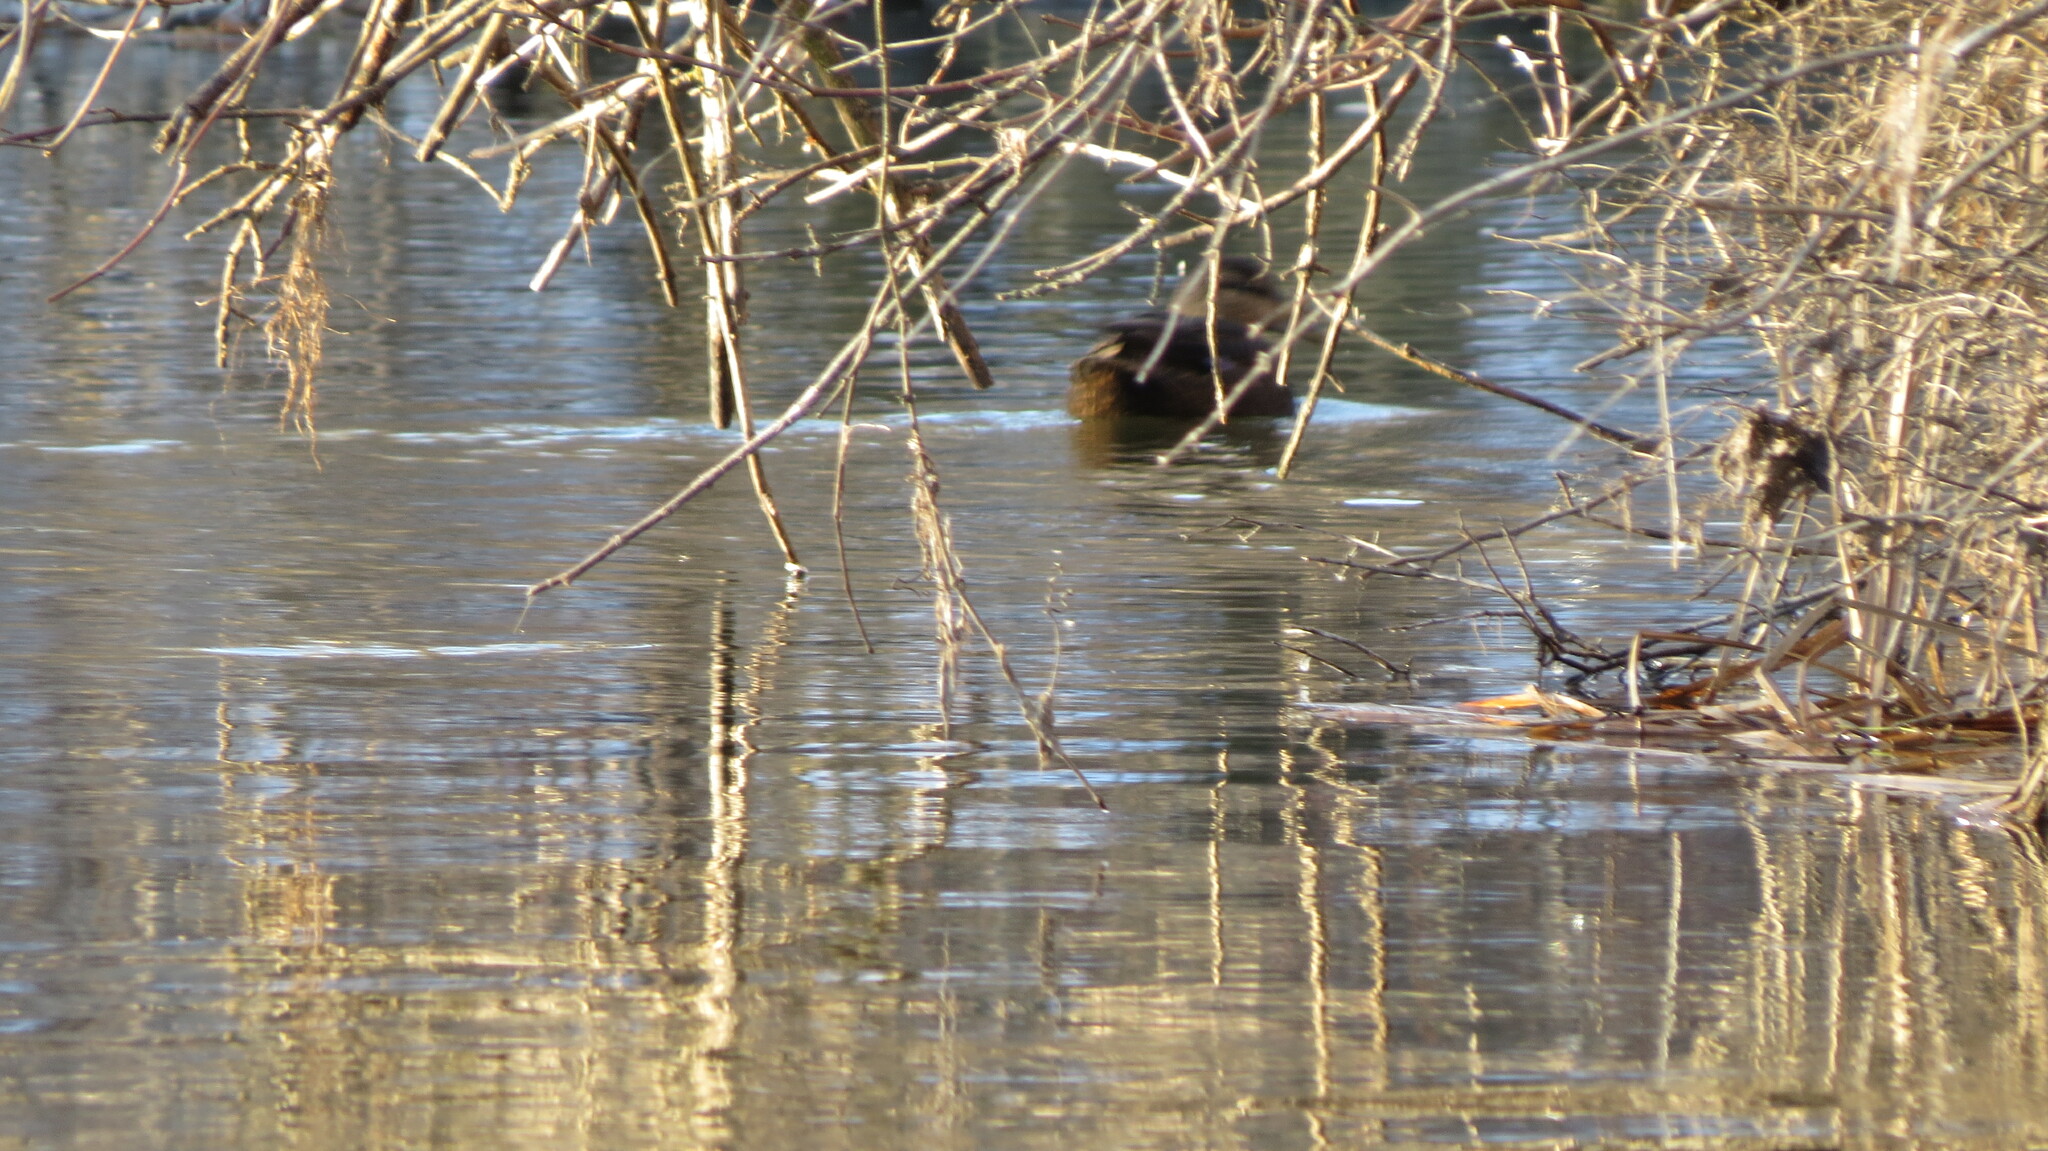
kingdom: Animalia
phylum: Chordata
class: Aves
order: Anseriformes
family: Anatidae
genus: Anas
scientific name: Anas rubripes
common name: American black duck
